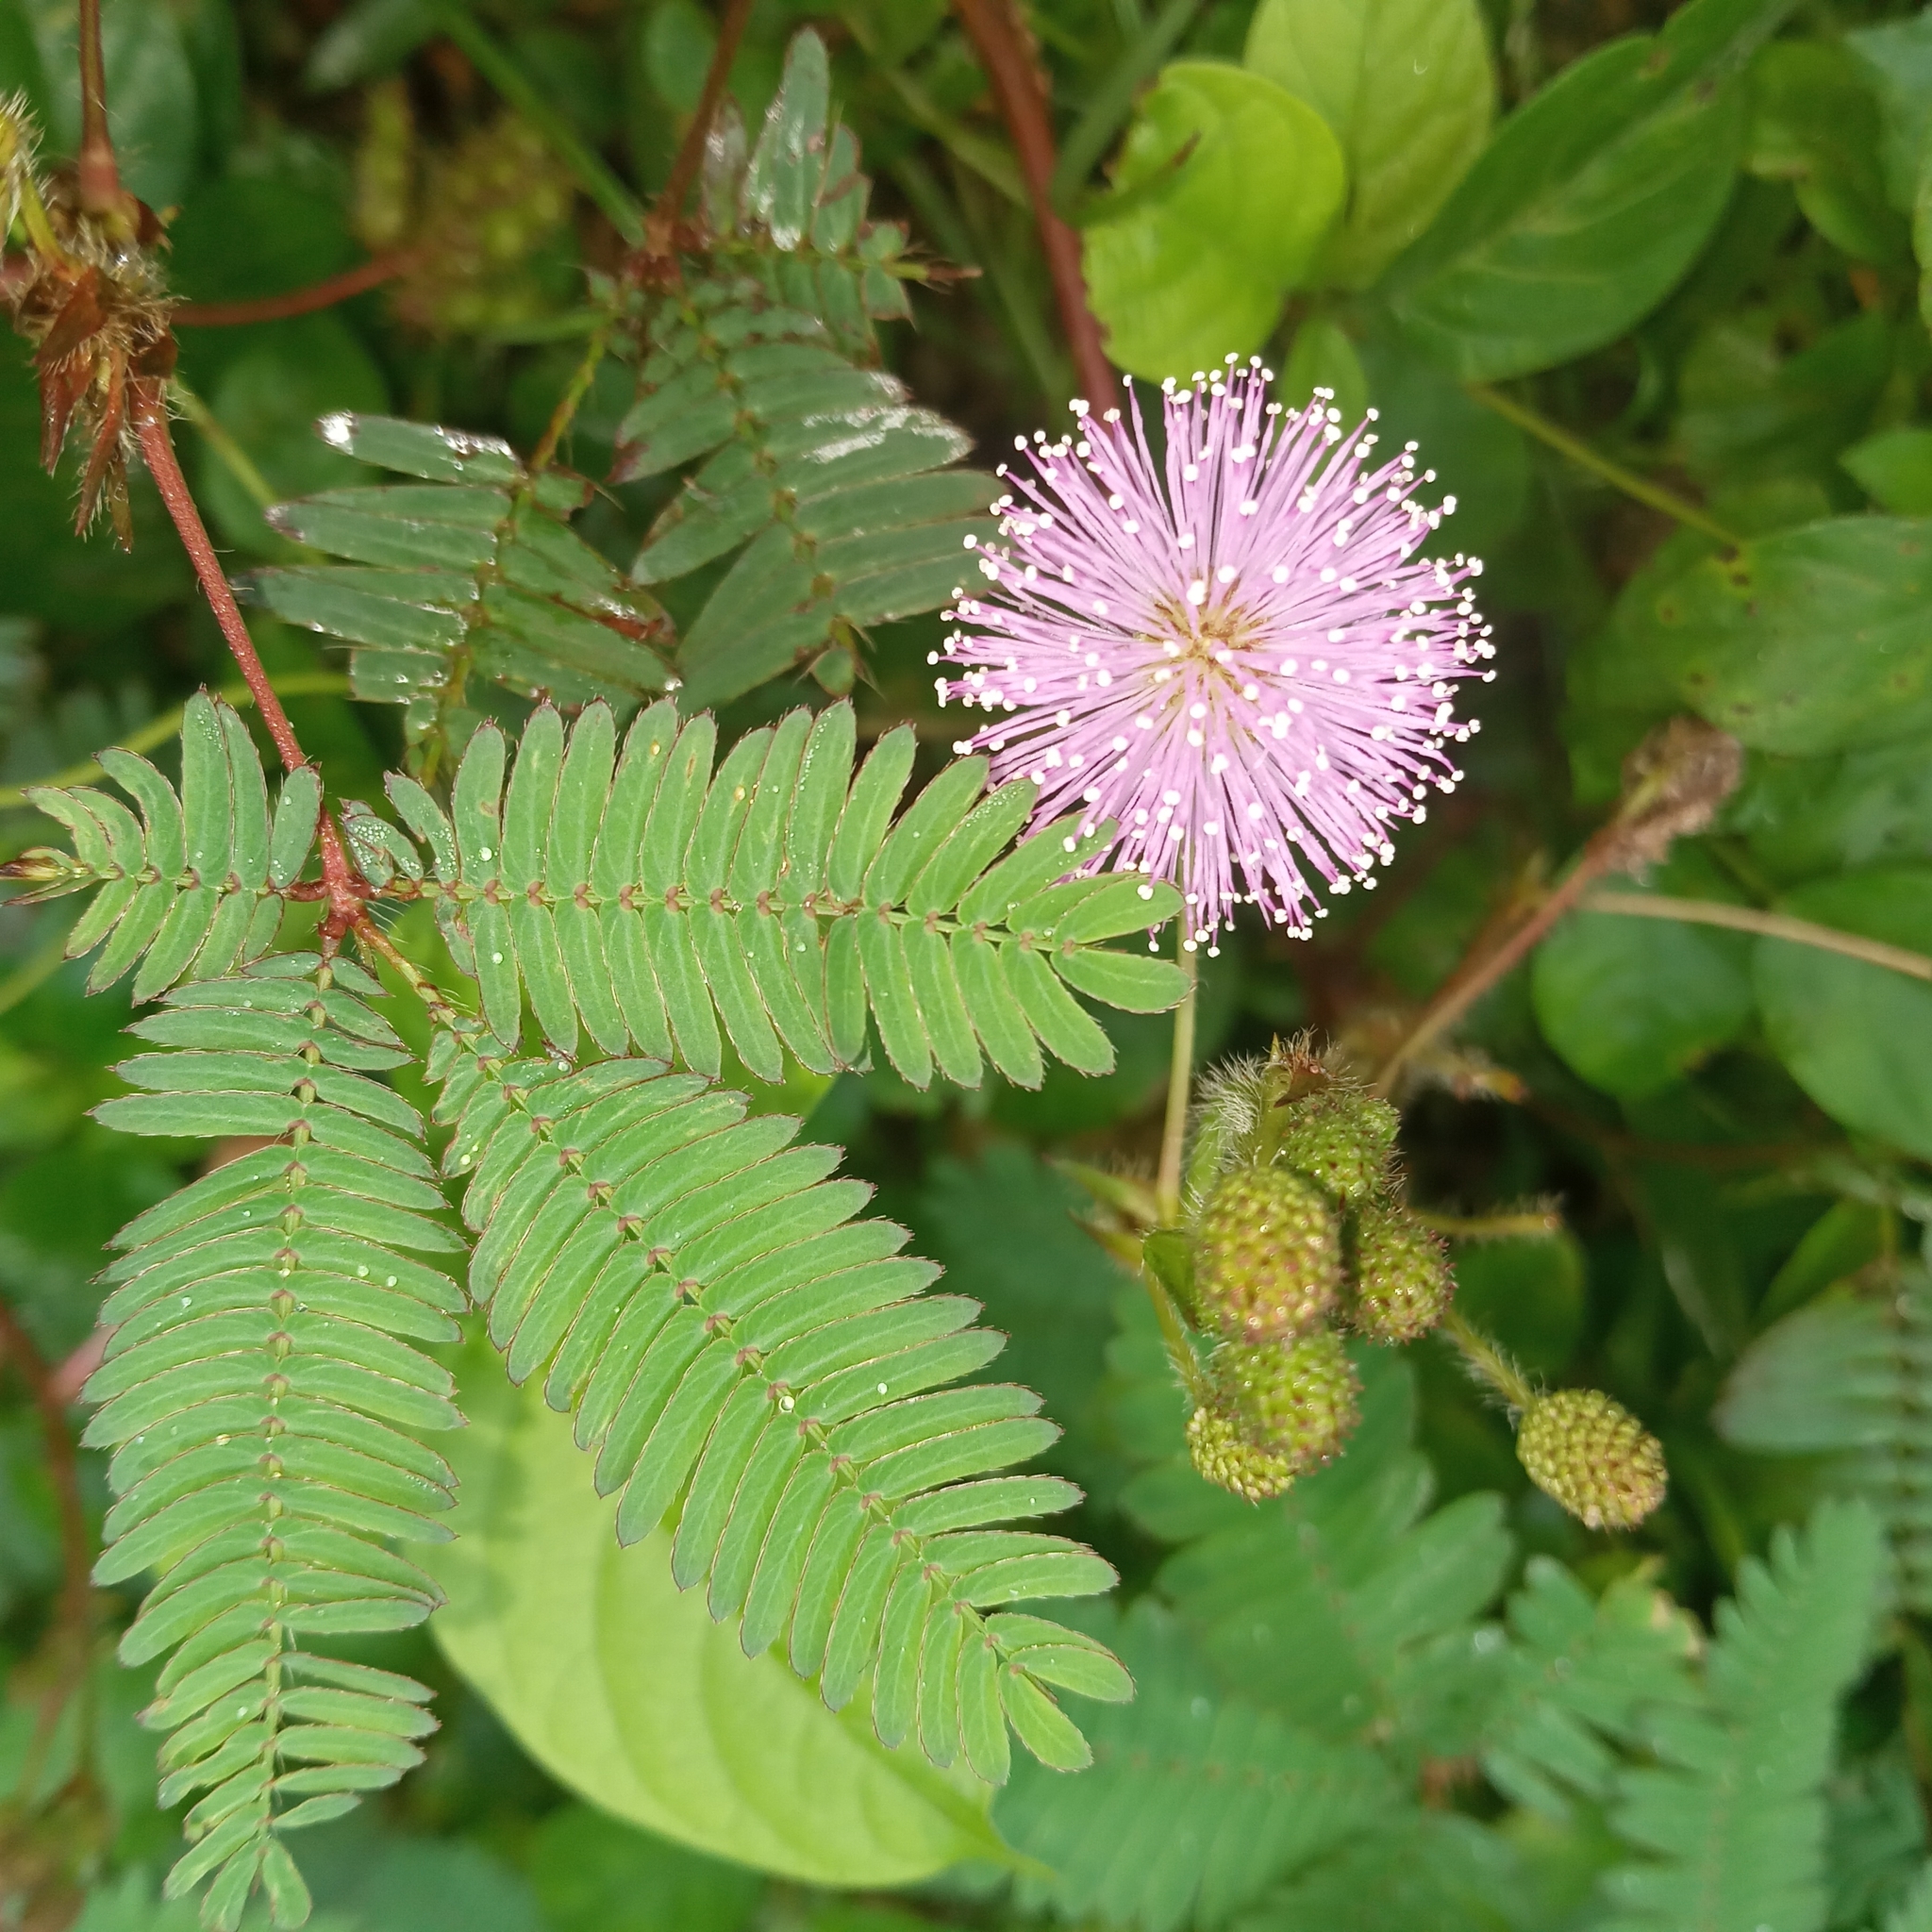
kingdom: Plantae
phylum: Tracheophyta
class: Magnoliopsida
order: Fabales
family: Fabaceae
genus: Mimosa
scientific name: Mimosa pudica
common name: Sensitive plant
